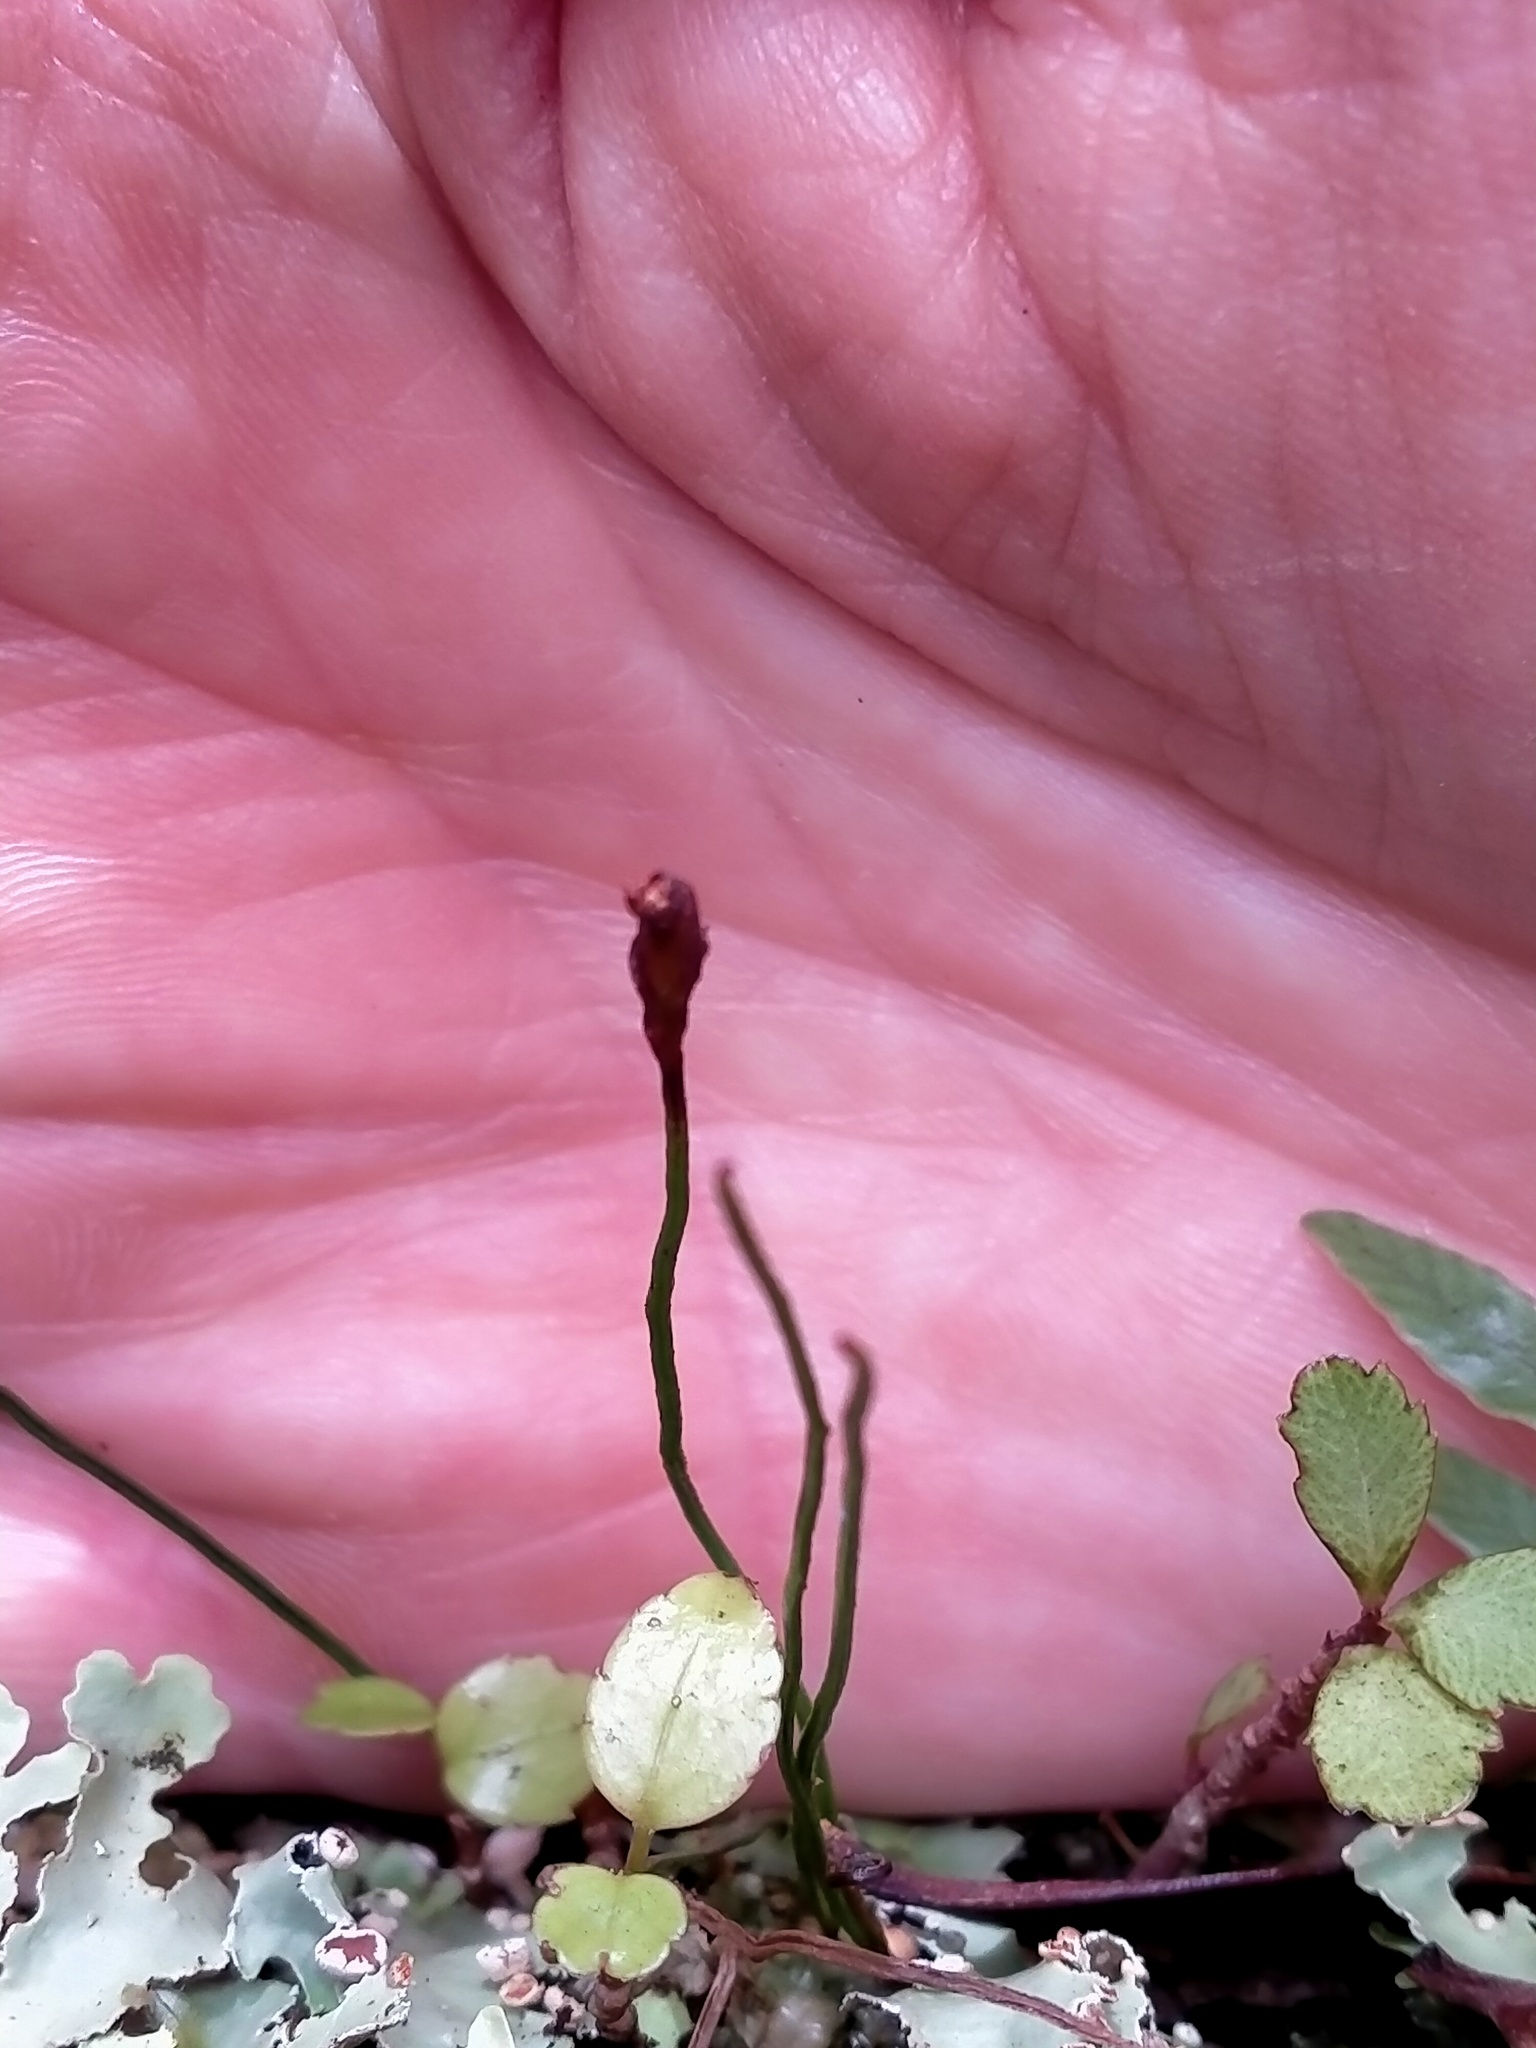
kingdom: Plantae
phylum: Tracheophyta
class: Polypodiopsida
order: Schizaeales
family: Schizaeaceae
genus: Microschizaea
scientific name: Microschizaea australis
